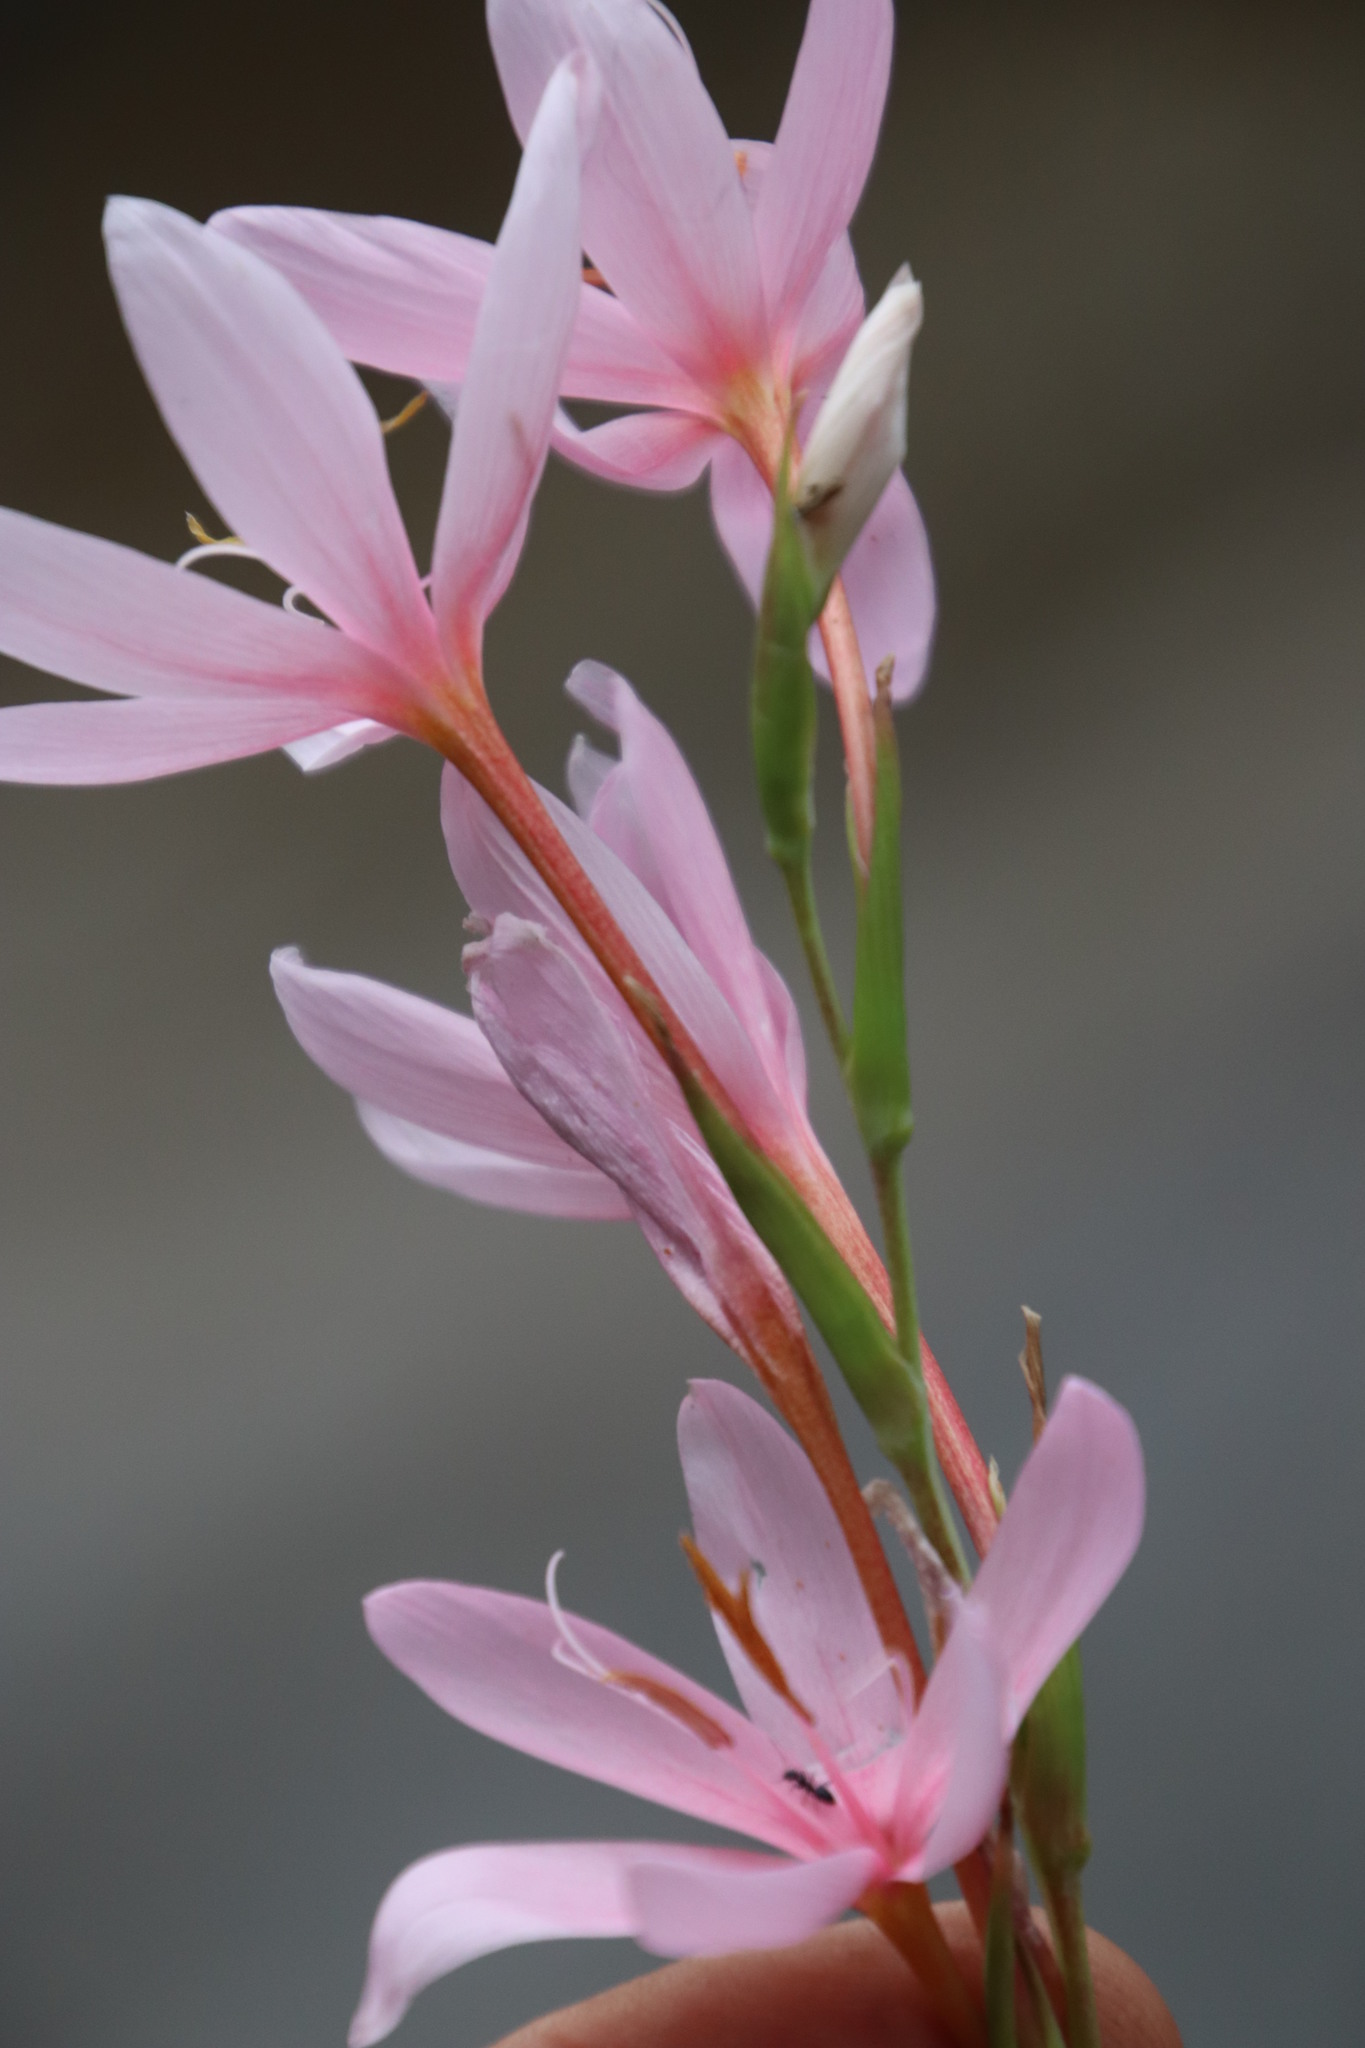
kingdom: Plantae
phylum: Tracheophyta
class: Liliopsida
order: Asparagales
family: Iridaceae
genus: Hesperantha
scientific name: Hesperantha coccinea
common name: River-lily
